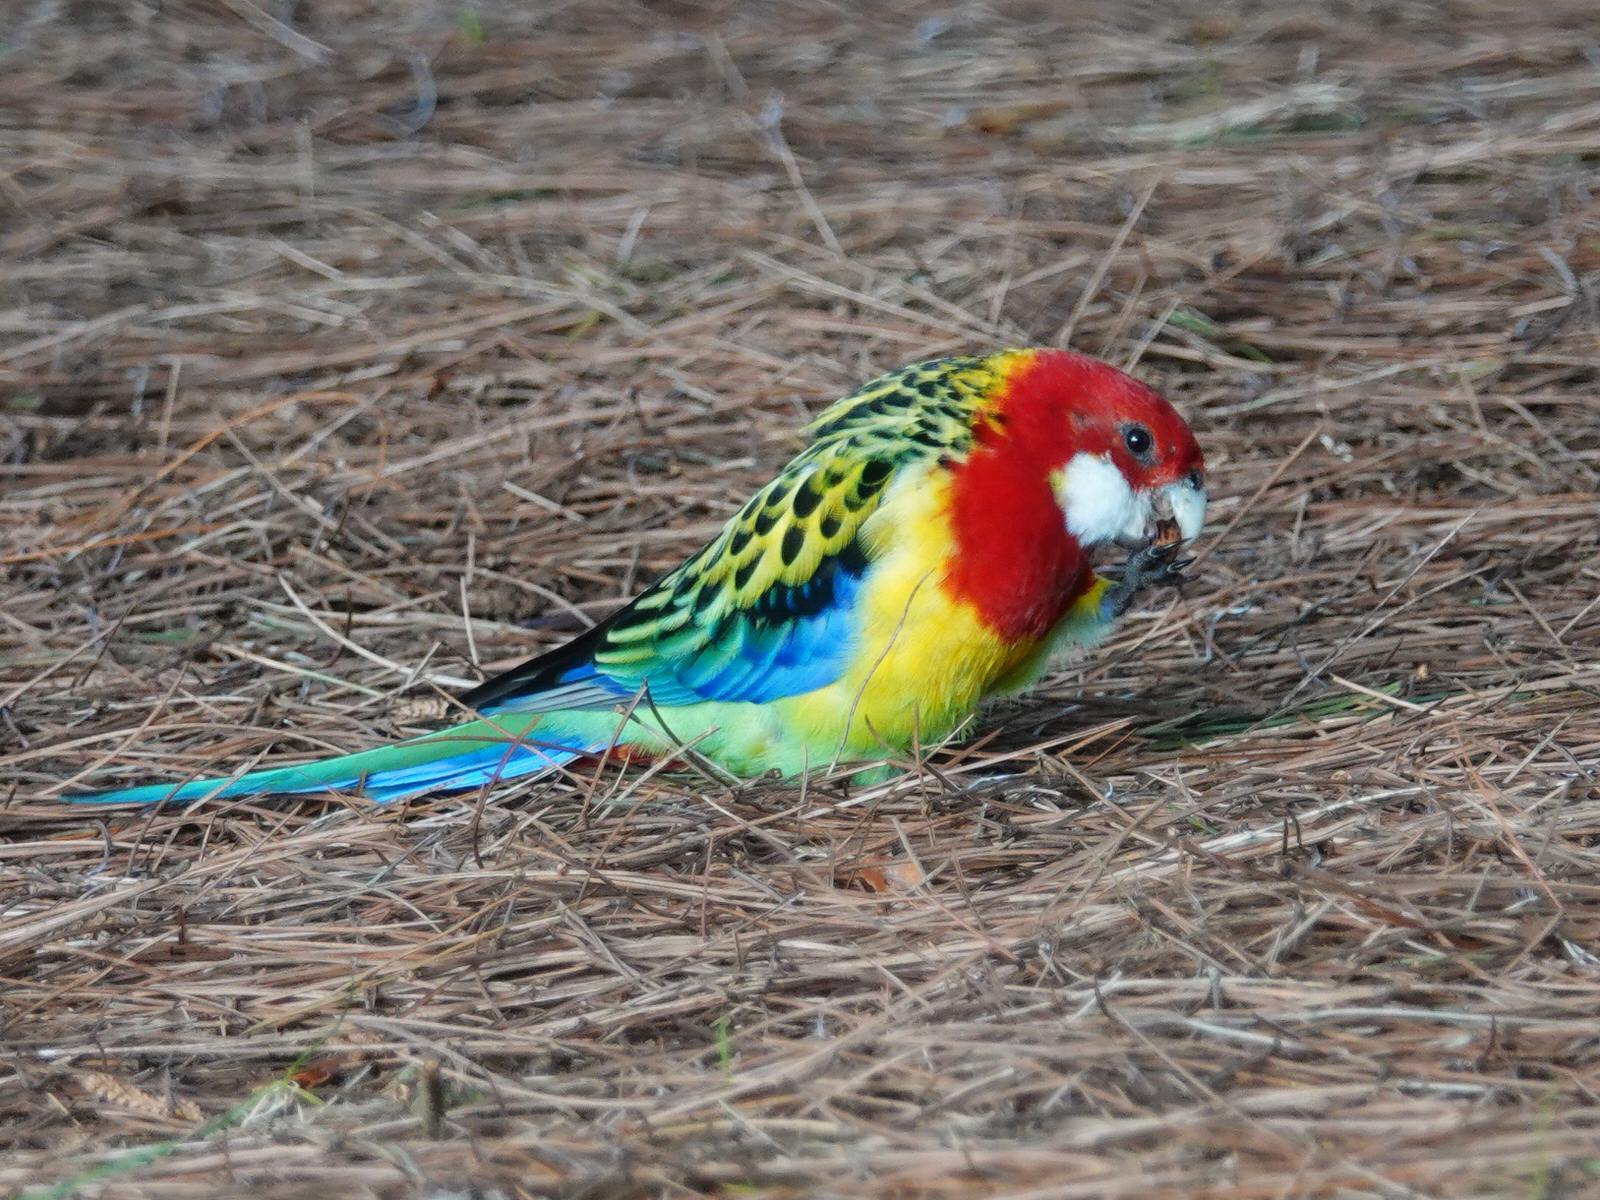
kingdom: Animalia
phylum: Chordata
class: Aves
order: Psittaciformes
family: Psittacidae
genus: Platycercus
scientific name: Platycercus eximius
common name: Eastern rosella
